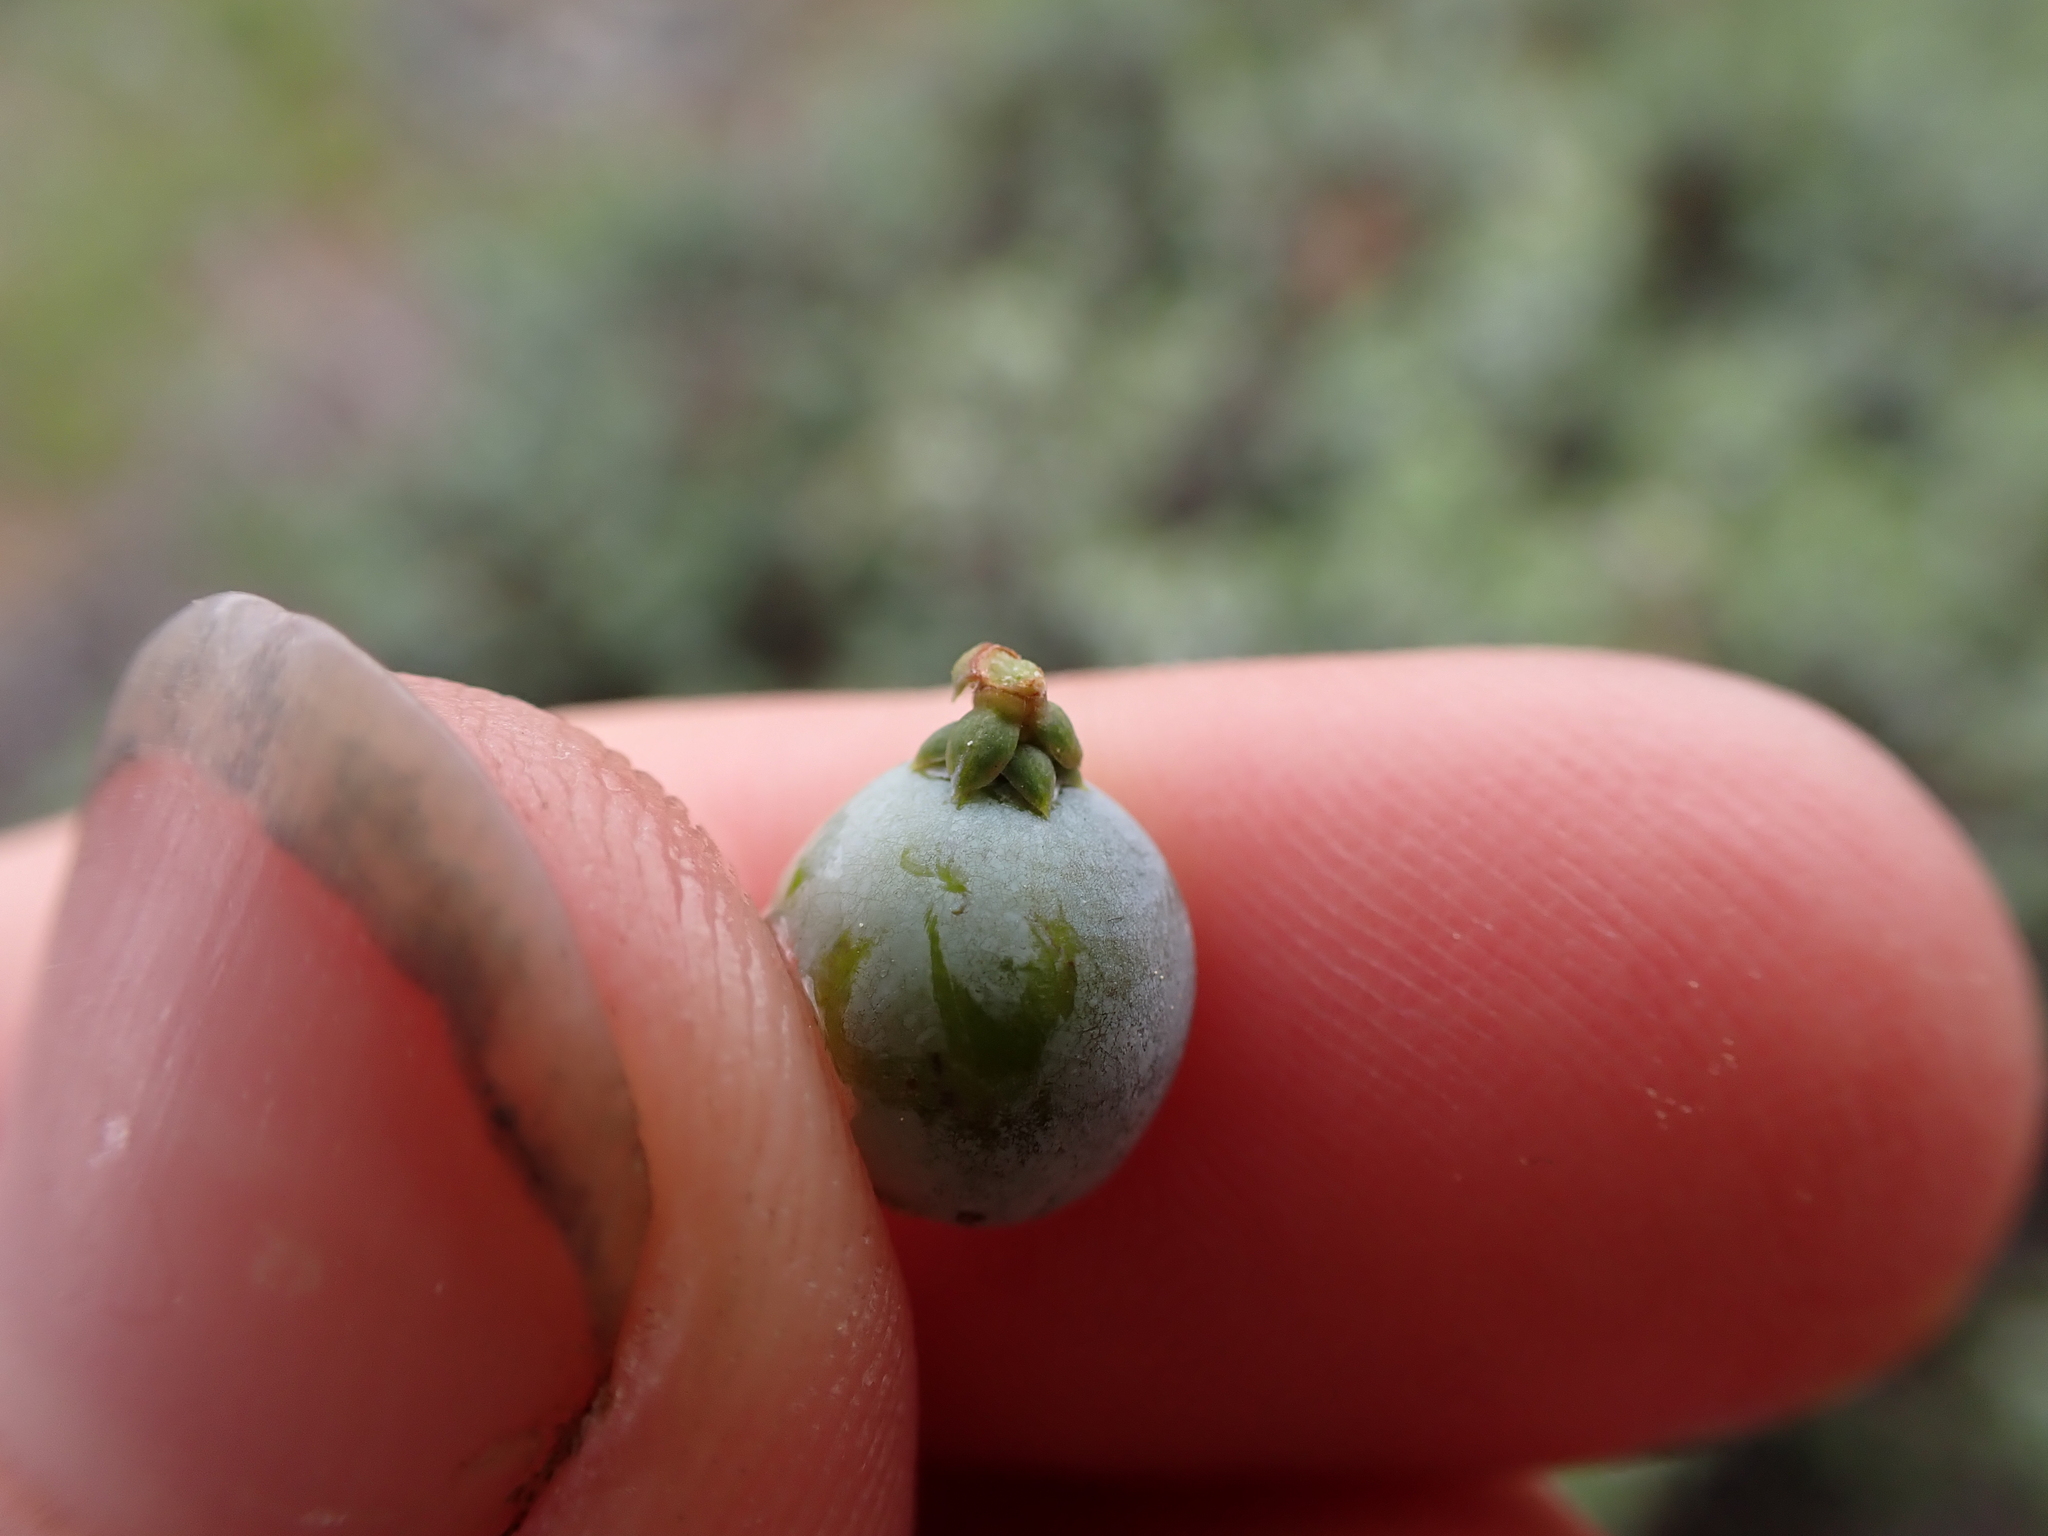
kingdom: Plantae
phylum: Tracheophyta
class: Pinopsida
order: Pinales
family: Cupressaceae
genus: Juniperus
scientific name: Juniperus communis
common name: Common juniper
